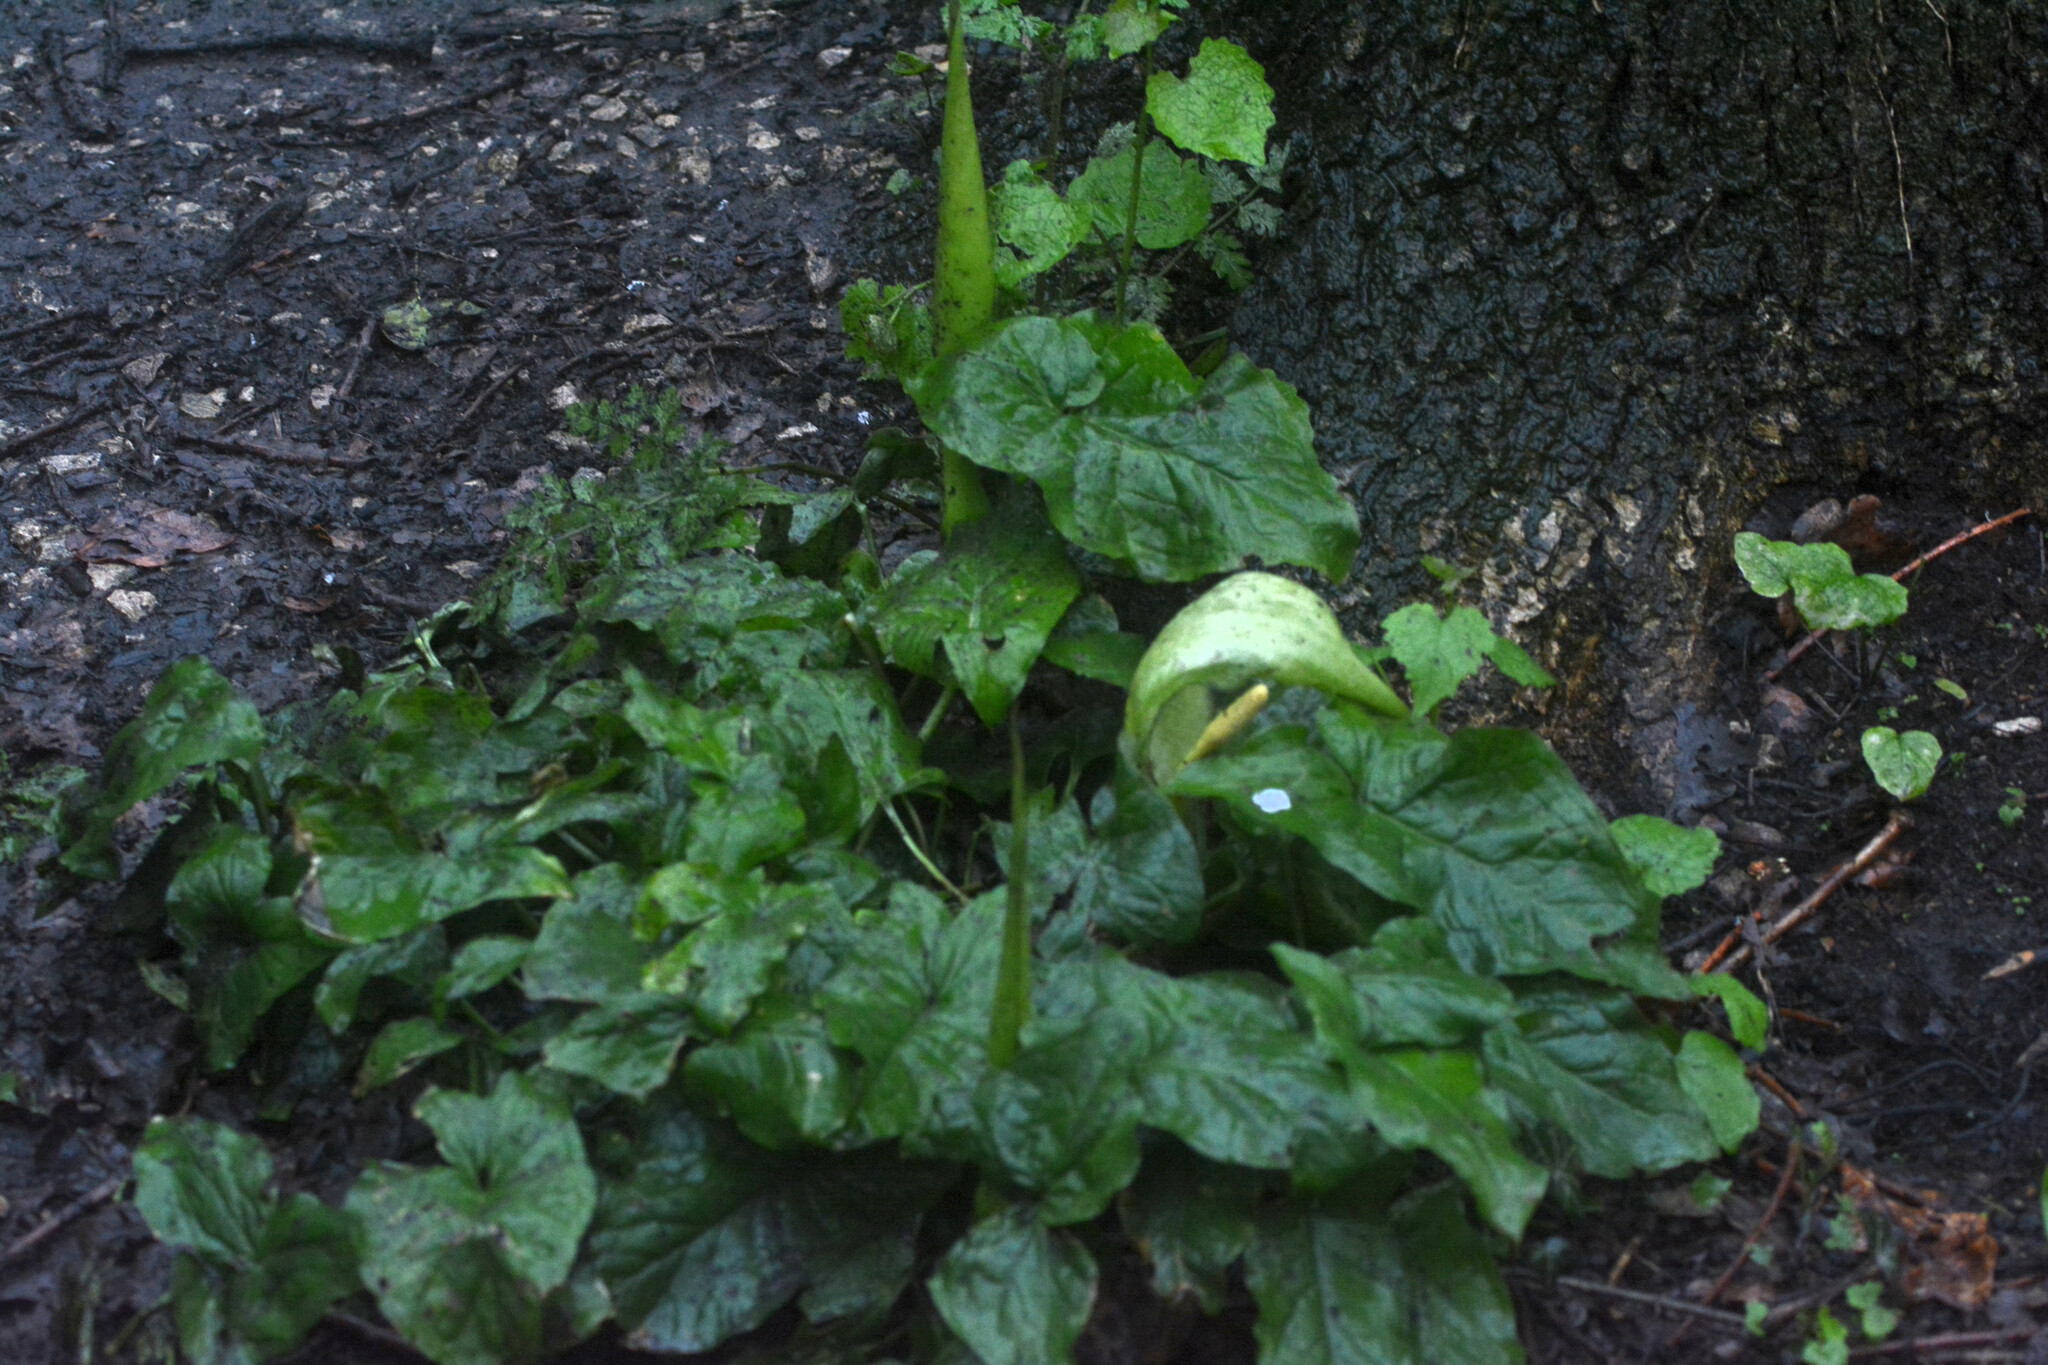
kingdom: Plantae
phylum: Tracheophyta
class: Liliopsida
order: Alismatales
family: Araceae
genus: Arum
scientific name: Arum maculatum
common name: Lords-and-ladies
